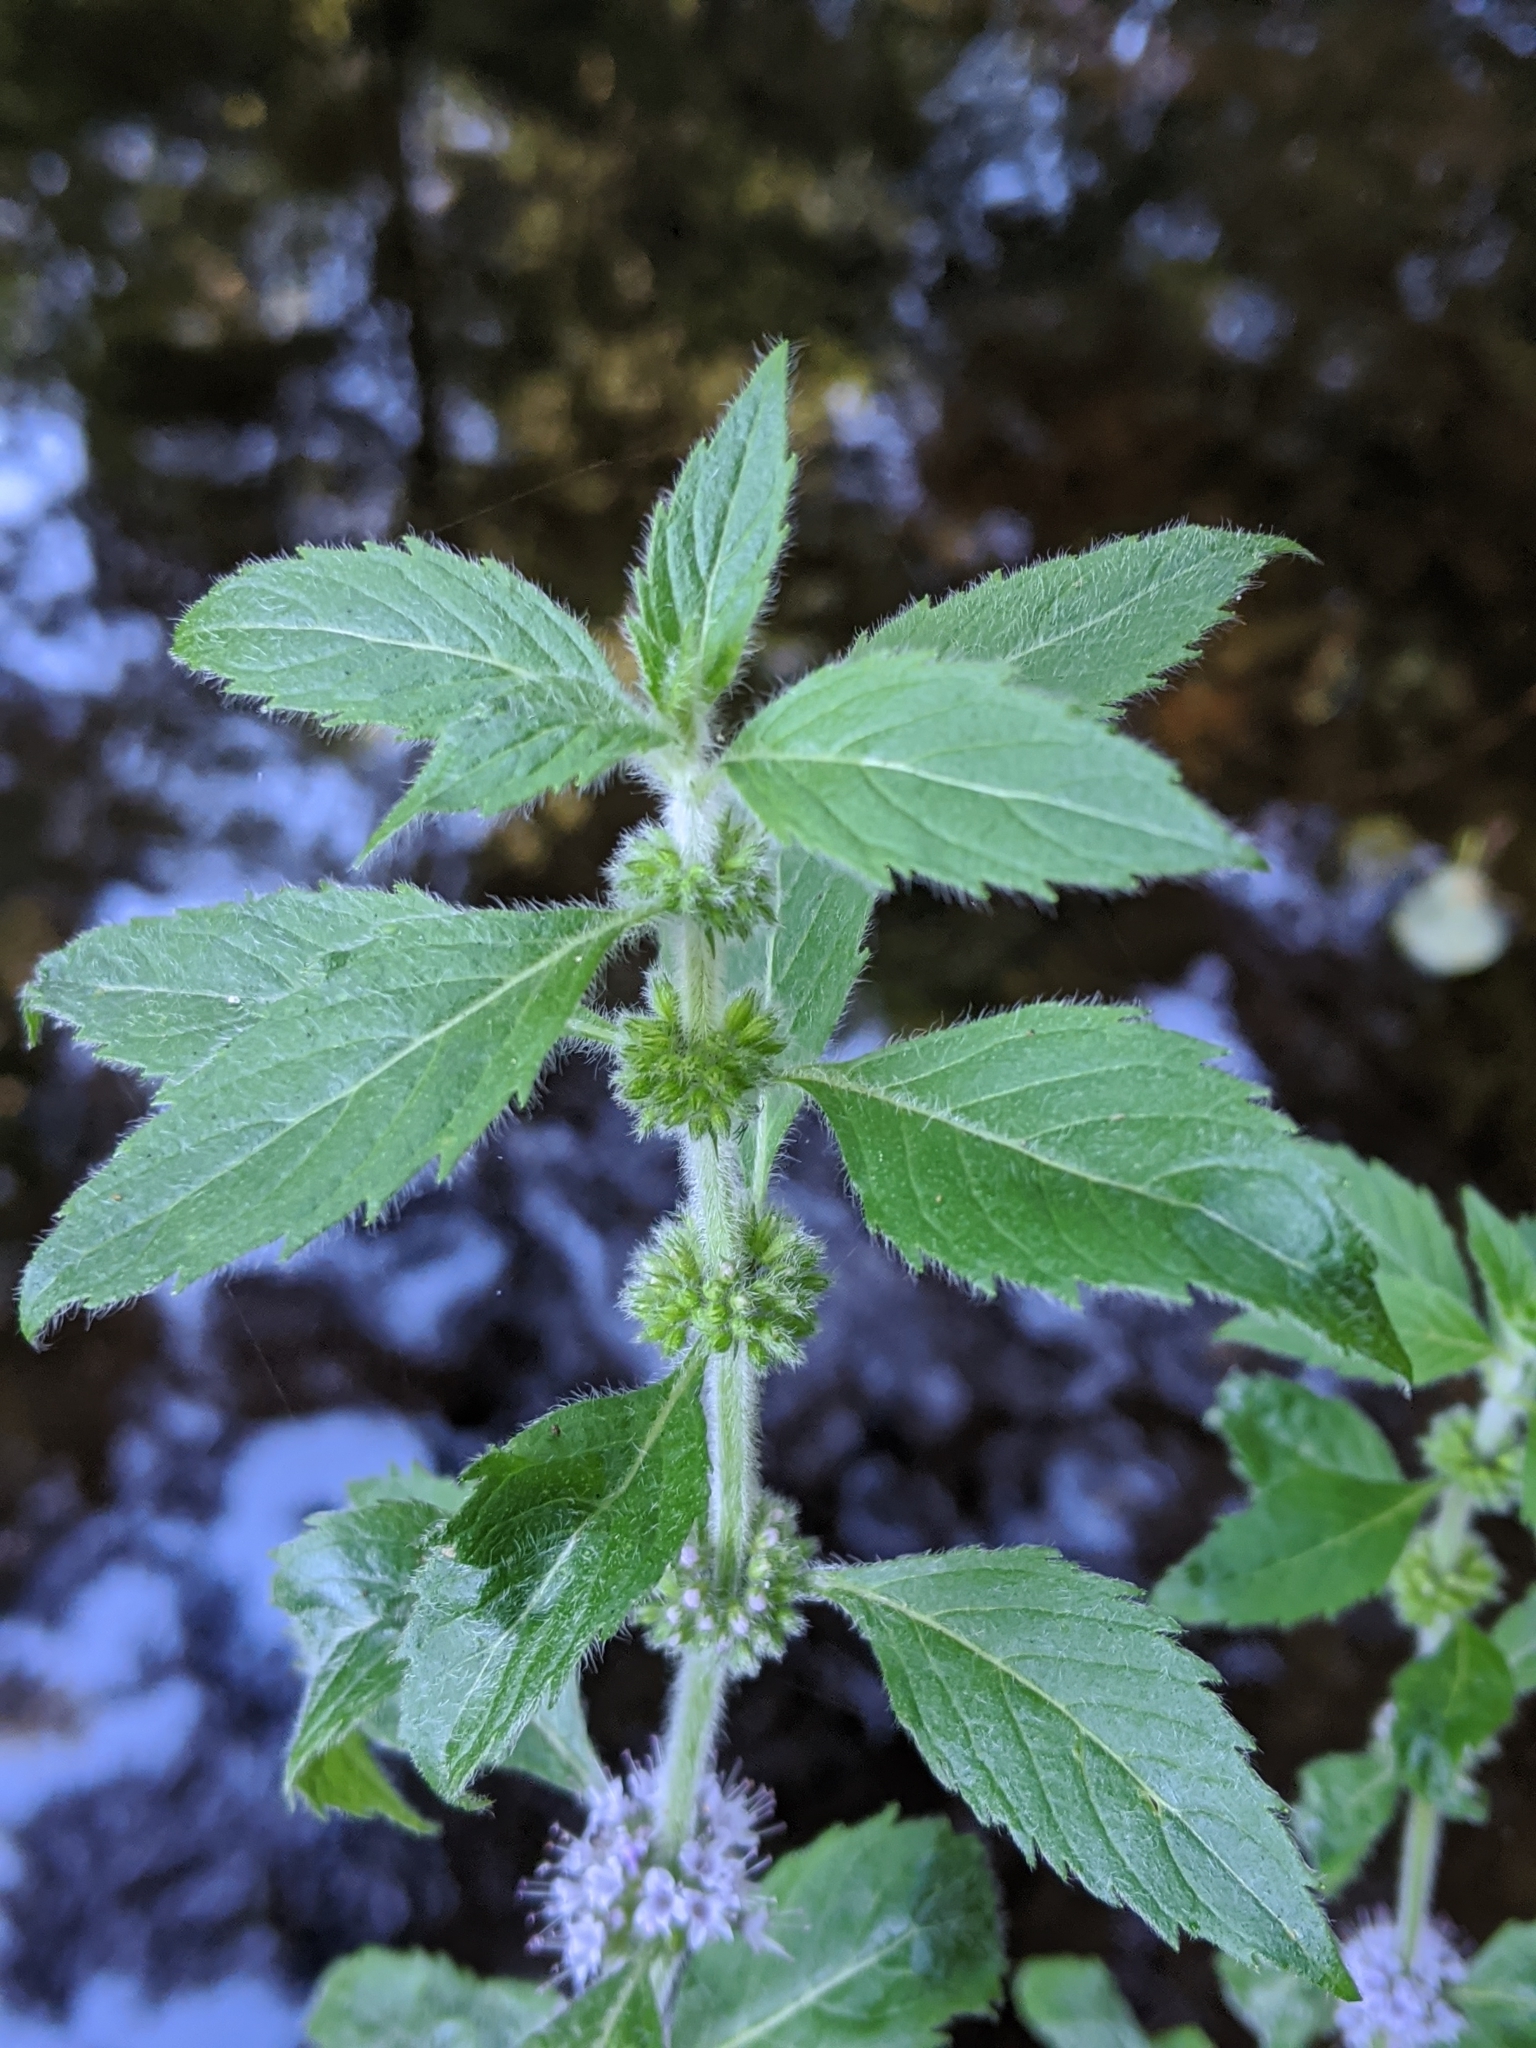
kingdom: Plantae
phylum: Tracheophyta
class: Magnoliopsida
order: Lamiales
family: Lamiaceae
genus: Mentha
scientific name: Mentha canadensis
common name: American corn mint
